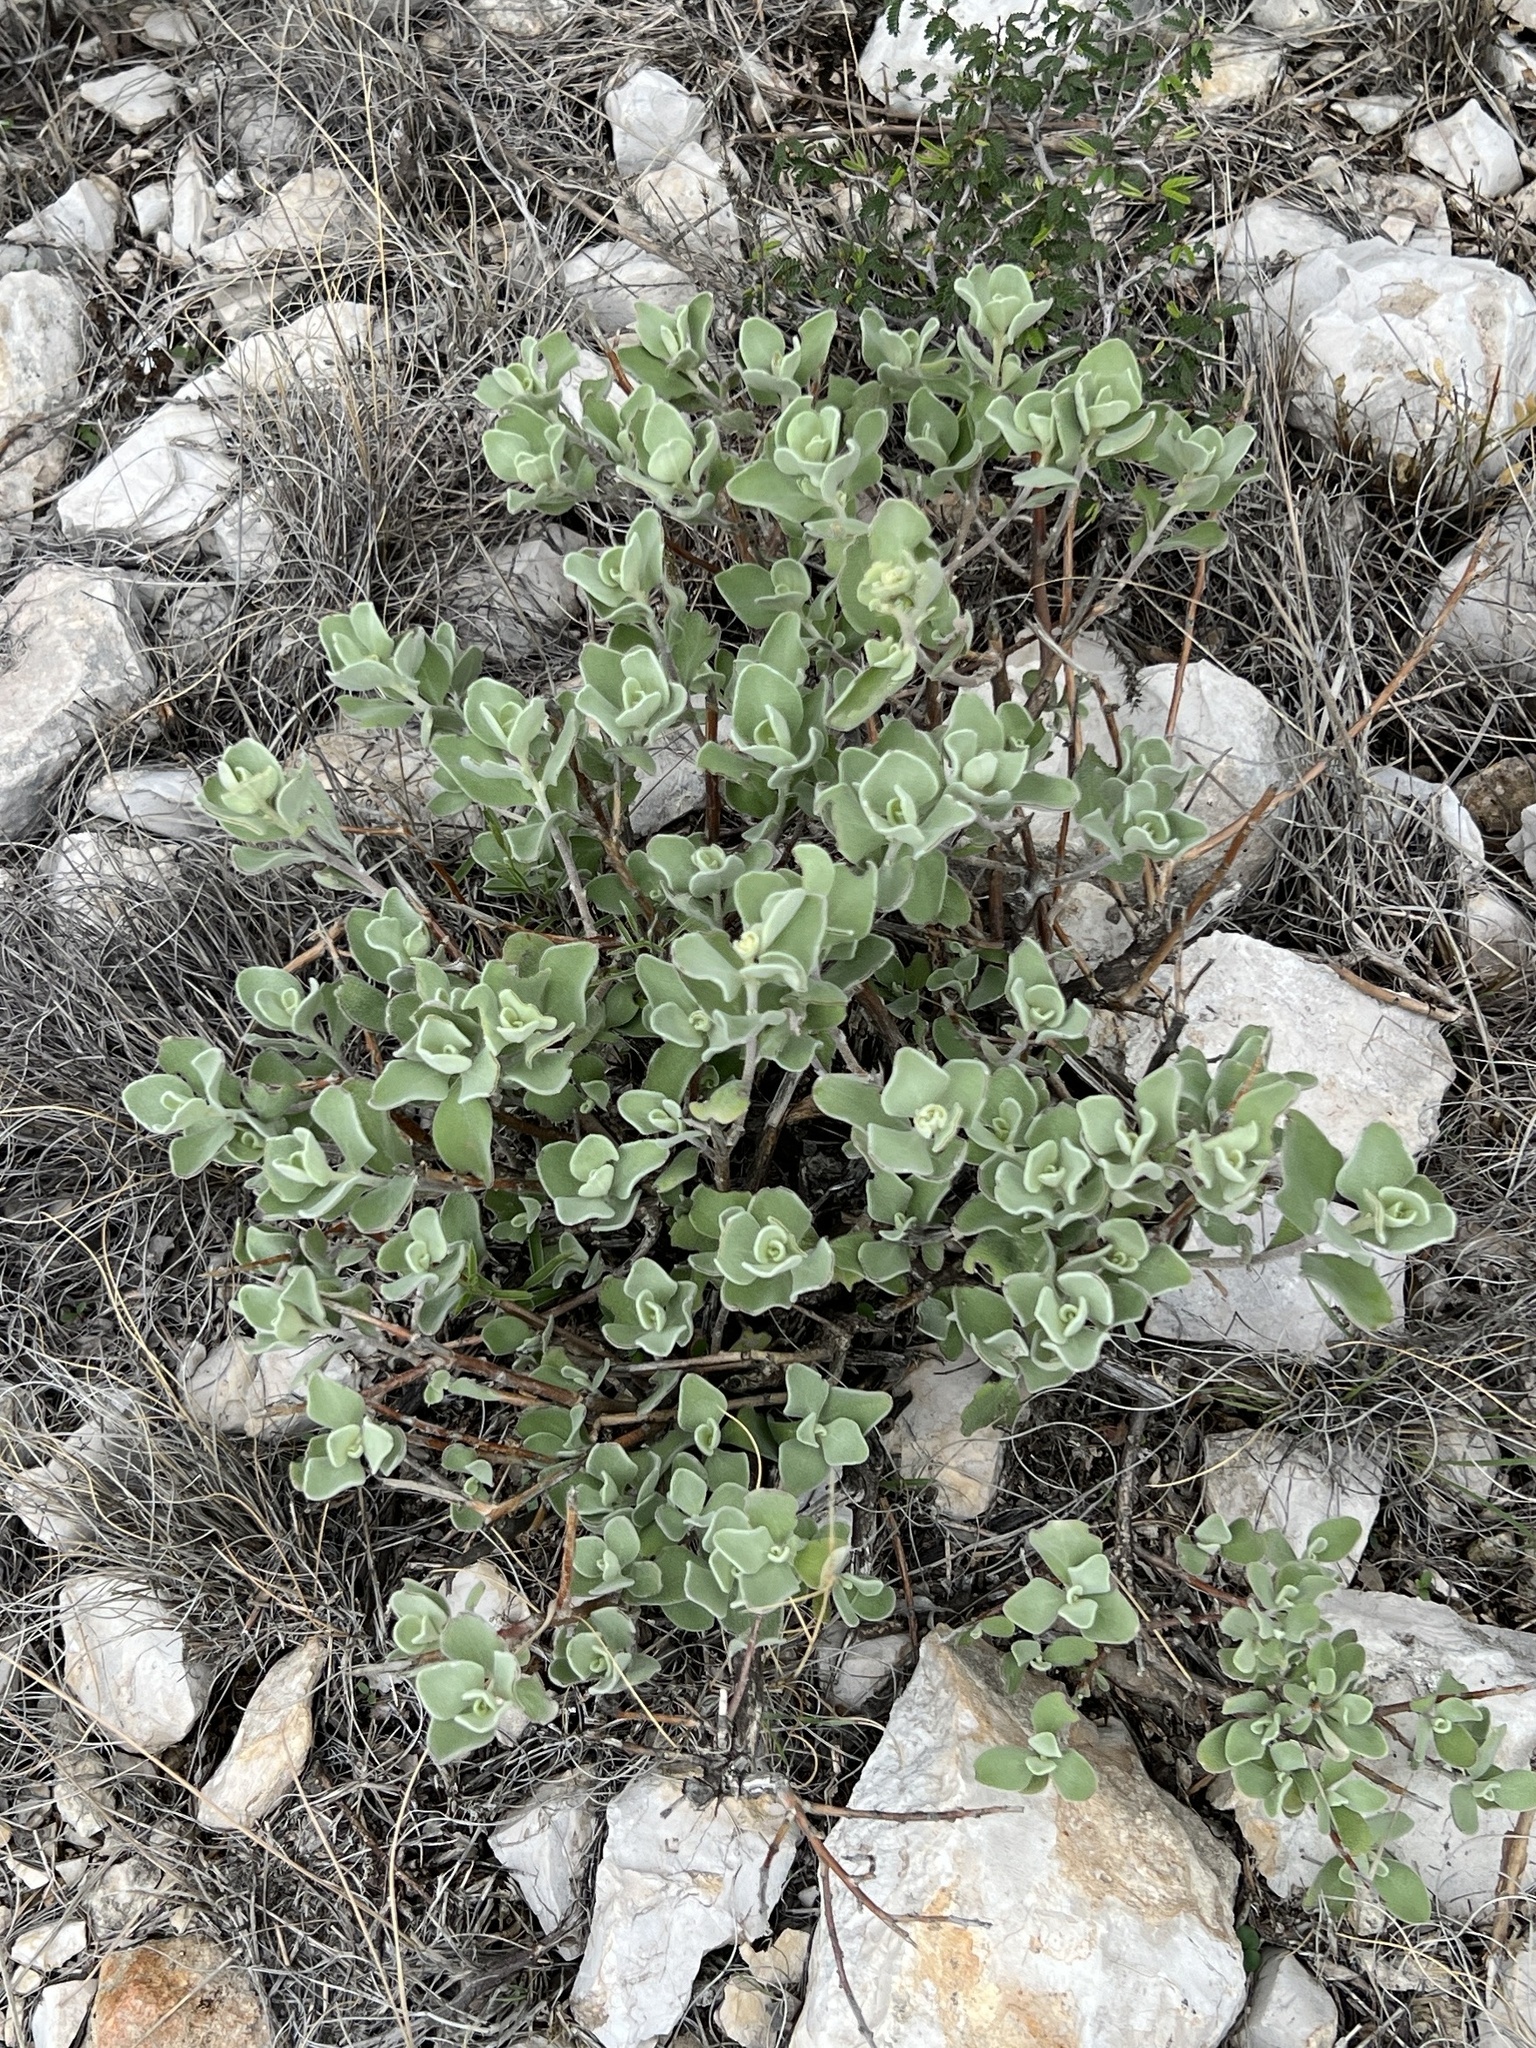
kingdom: Plantae
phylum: Tracheophyta
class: Magnoliopsida
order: Lamiales
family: Scrophulariaceae
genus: Leucophyllum
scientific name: Leucophyllum frutescens
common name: Texas silverleaf
